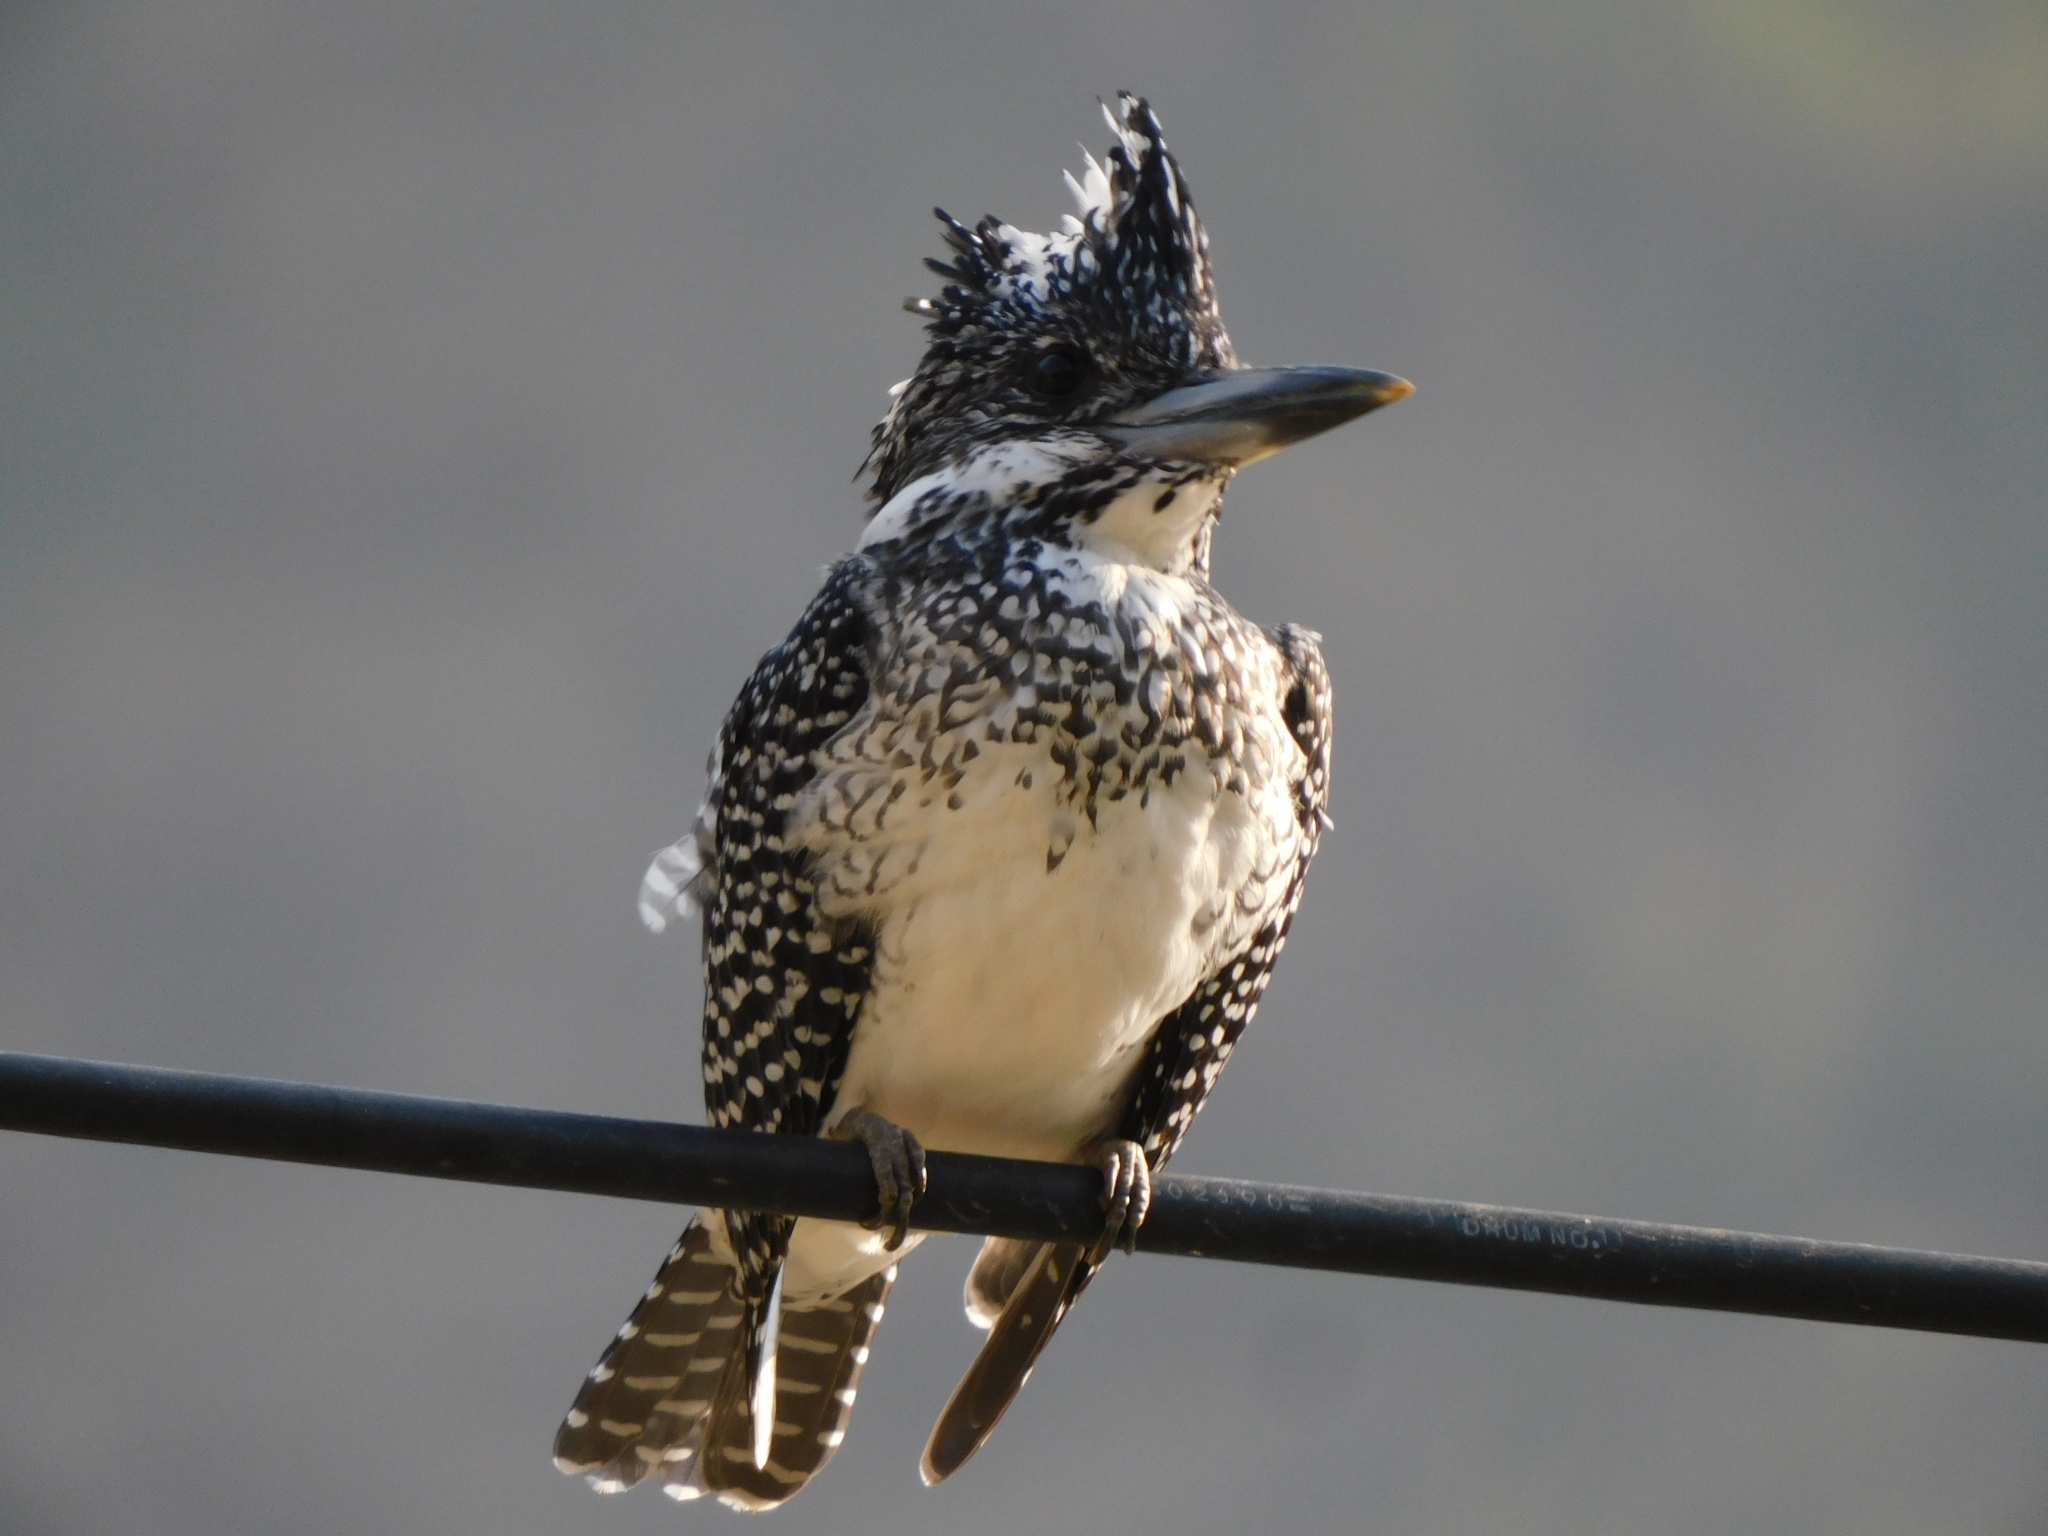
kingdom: Animalia
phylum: Chordata
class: Aves
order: Coraciiformes
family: Alcedinidae
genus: Megaceryle
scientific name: Megaceryle lugubris
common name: Crested kingfisher
